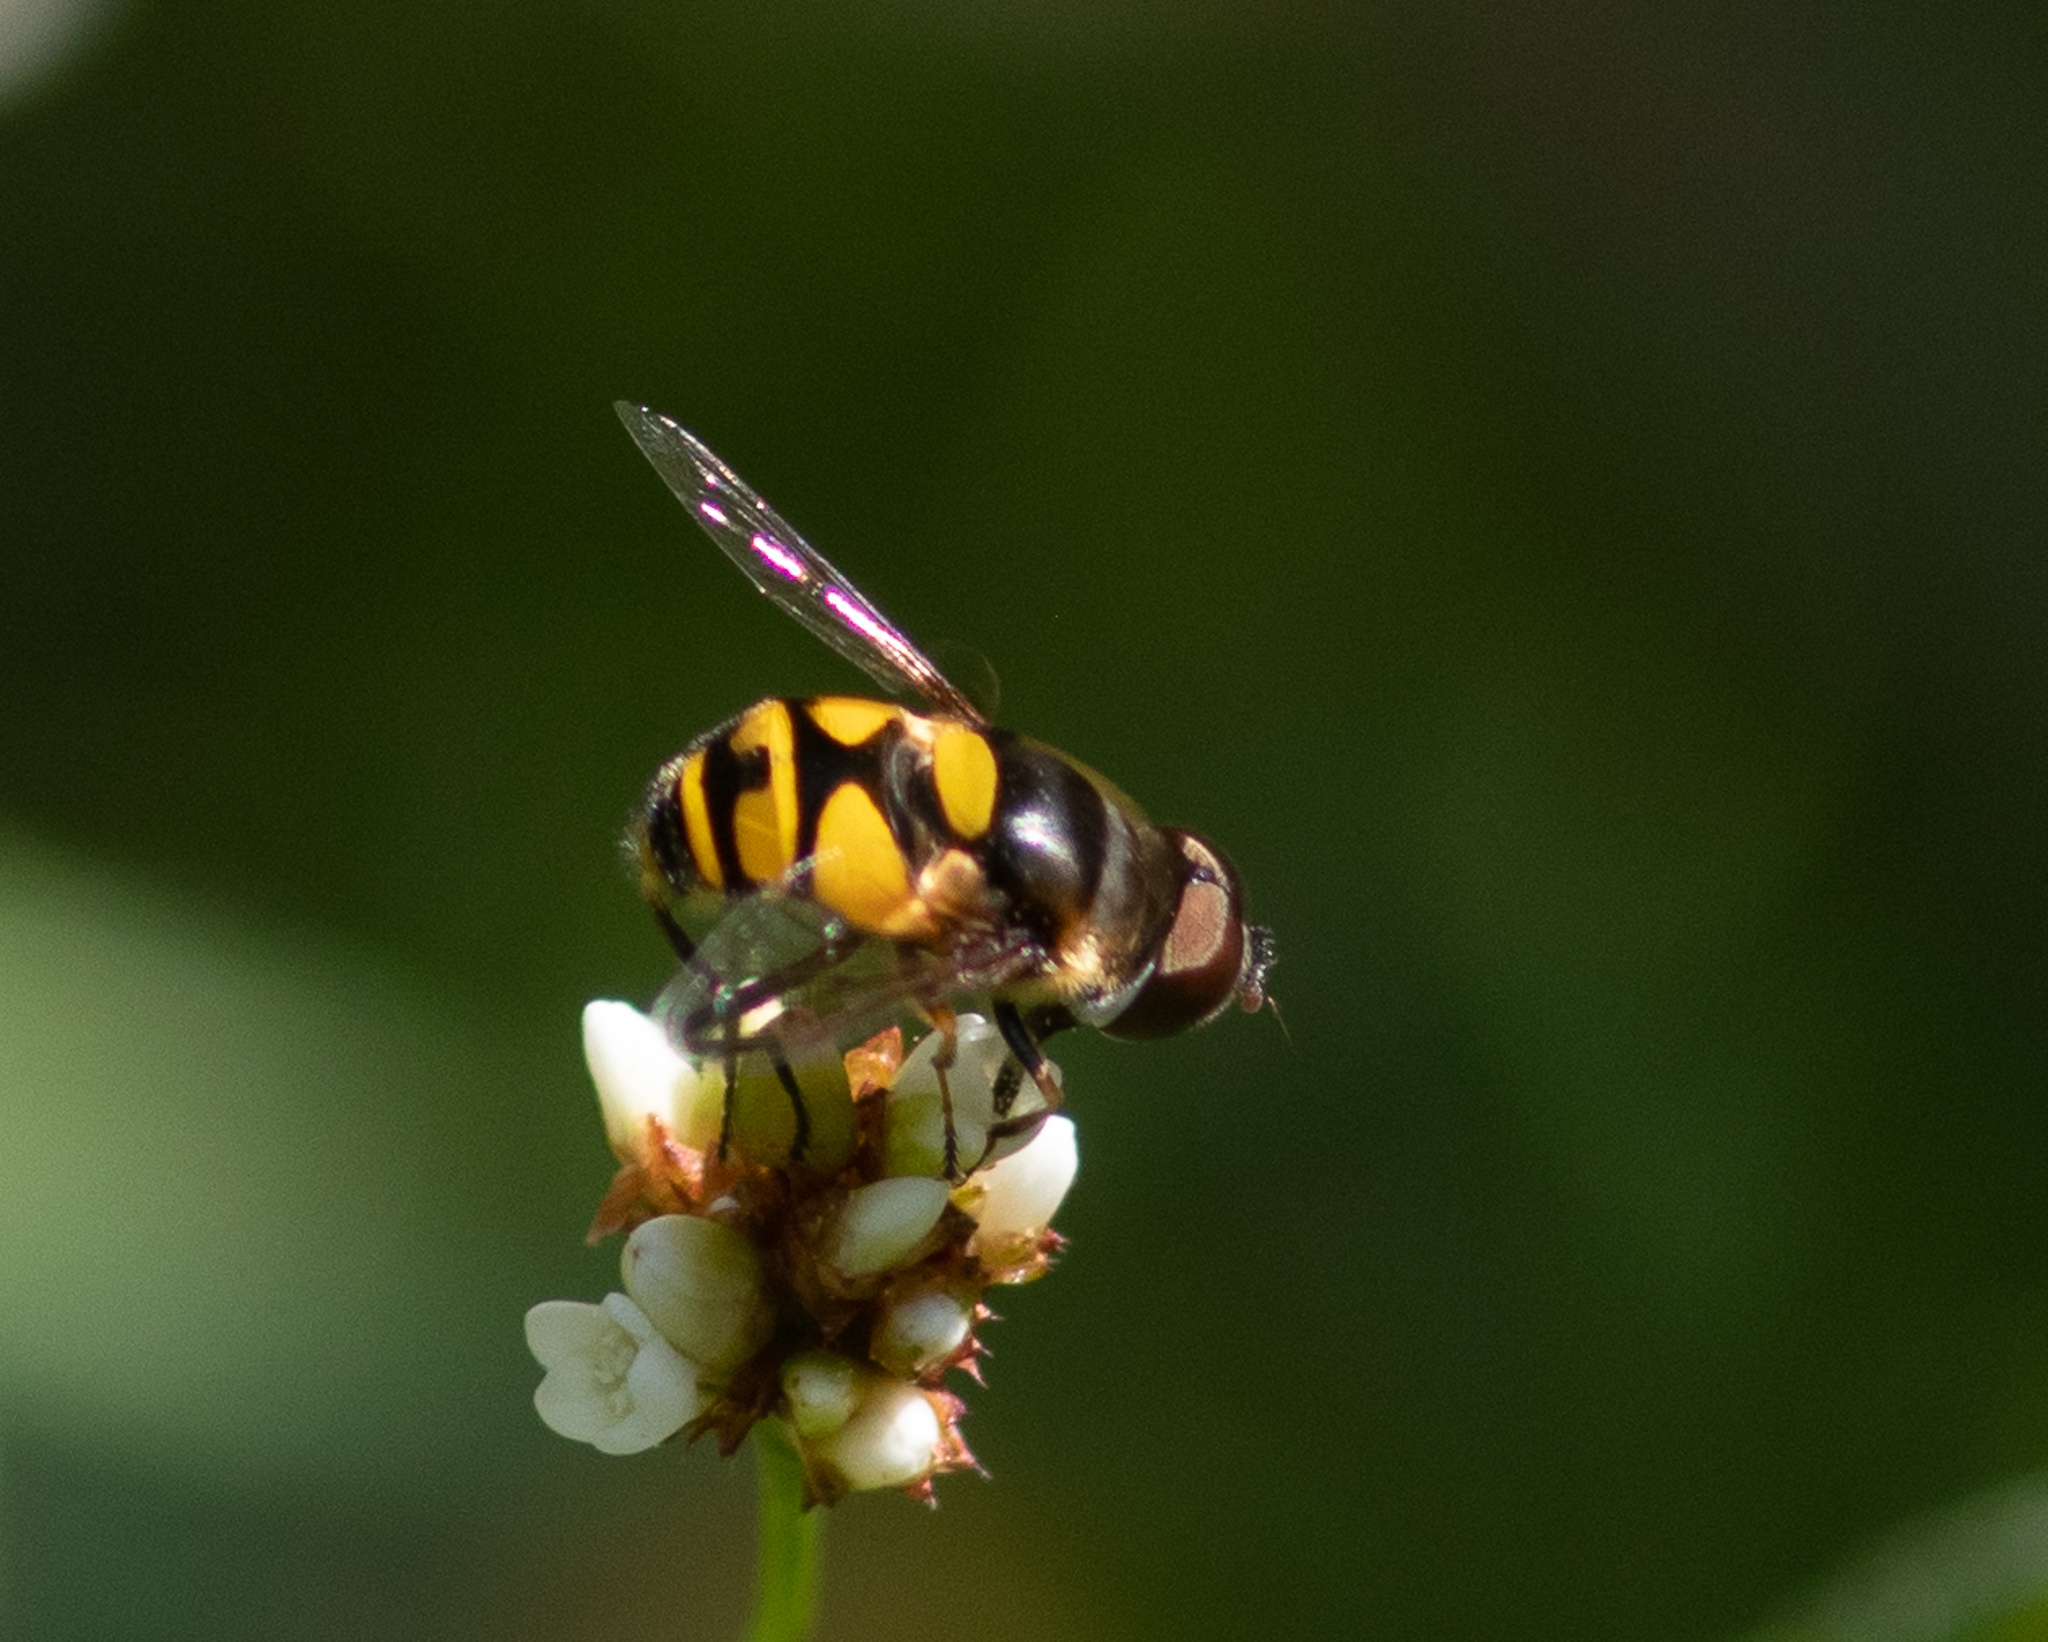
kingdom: Animalia
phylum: Arthropoda
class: Insecta
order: Diptera
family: Syrphidae
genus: Eristalis
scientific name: Eristalis transversa
